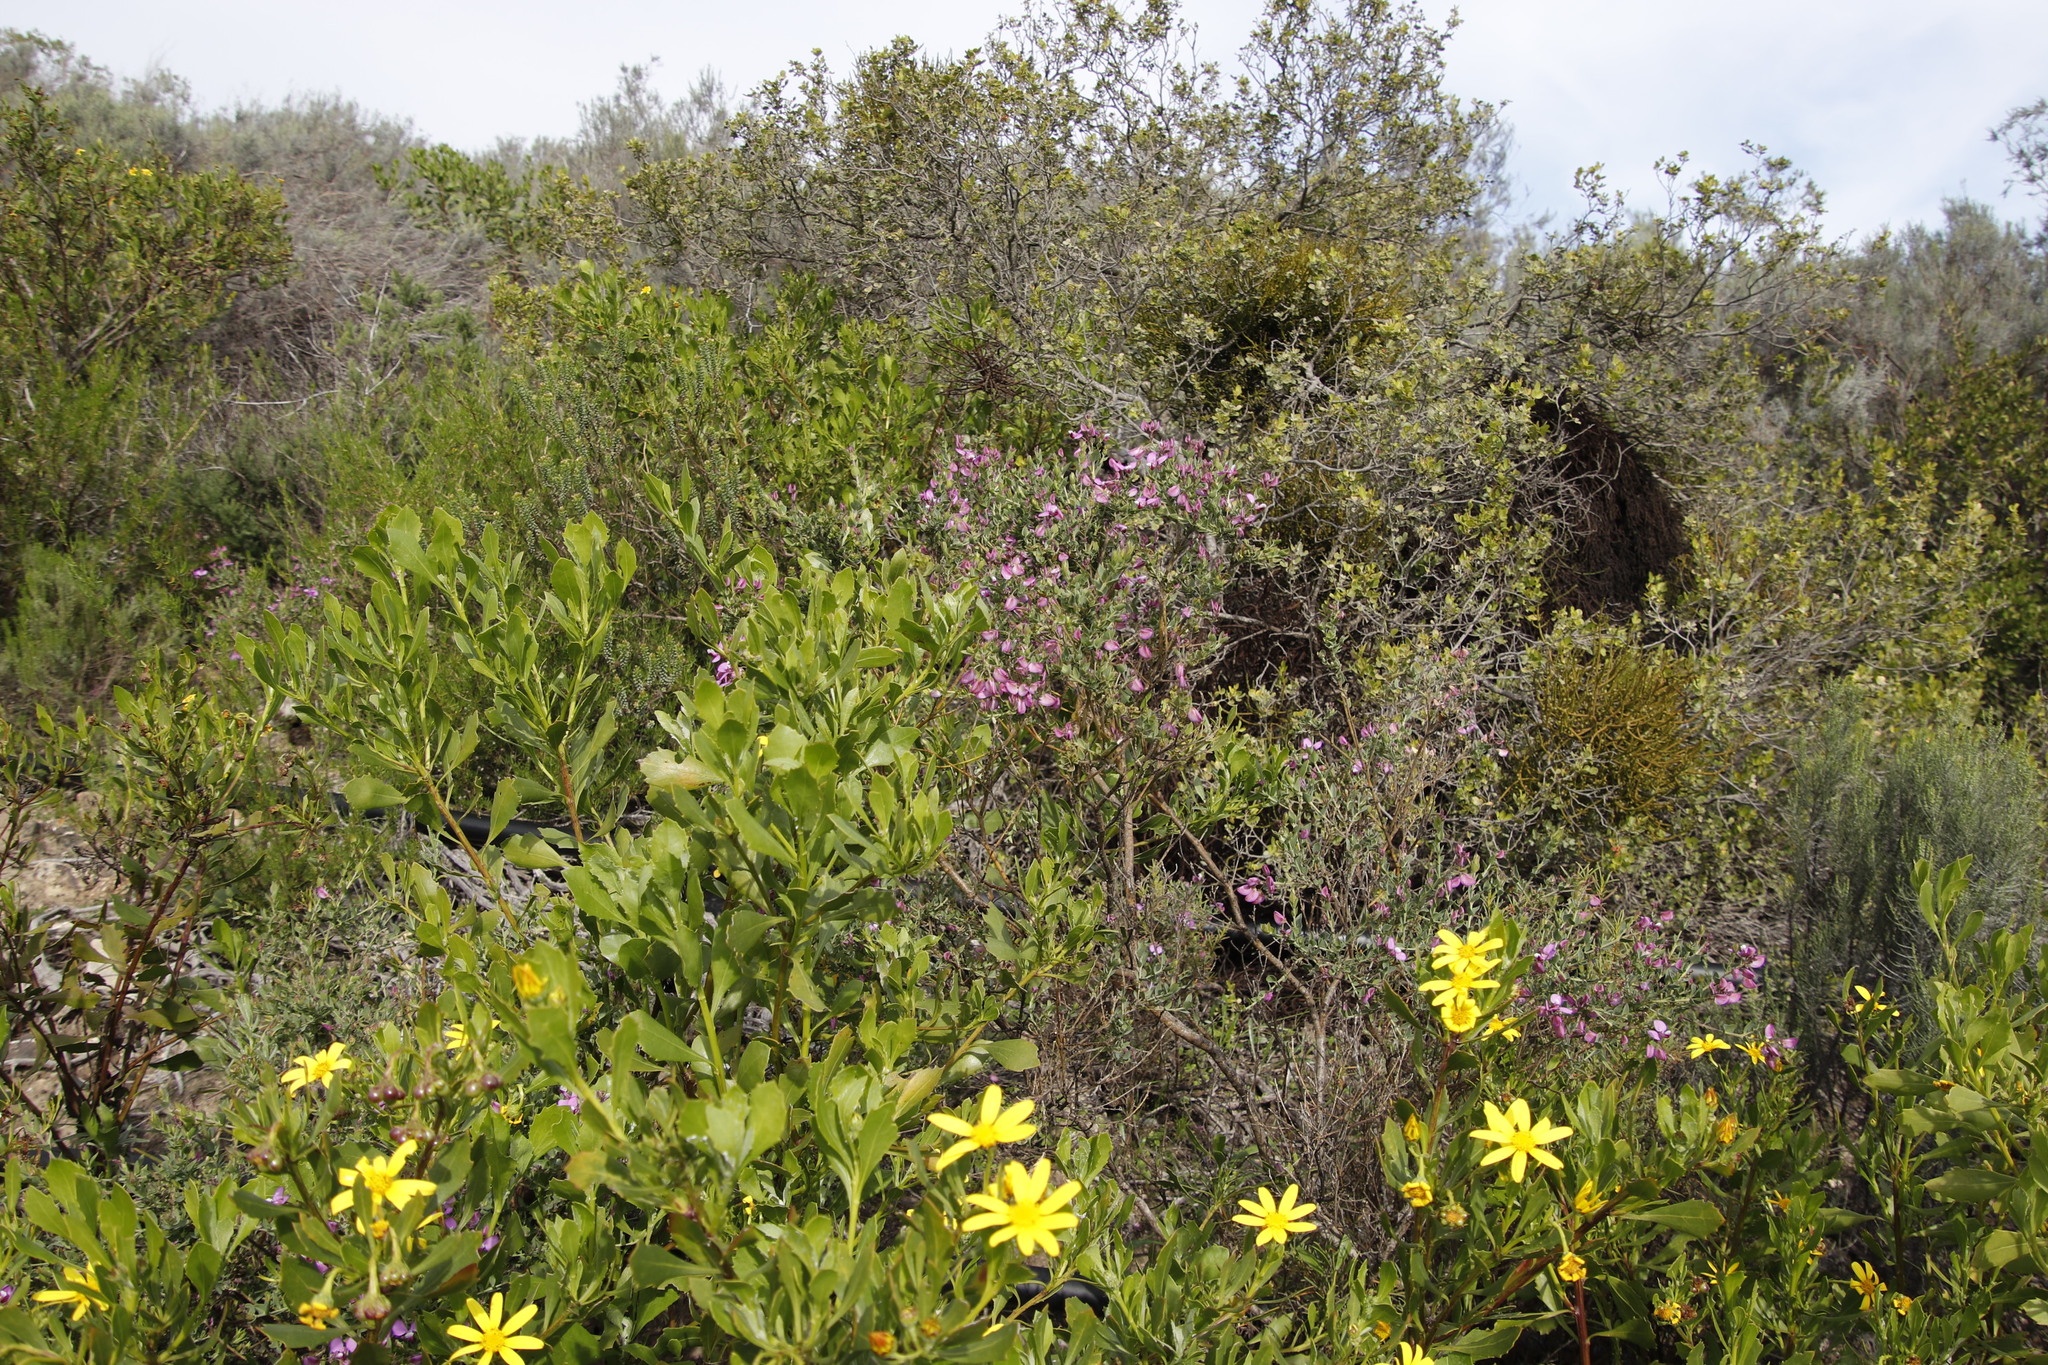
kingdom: Plantae
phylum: Tracheophyta
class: Magnoliopsida
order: Fabales
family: Polygalaceae
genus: Polygala
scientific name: Polygala fruticosa
